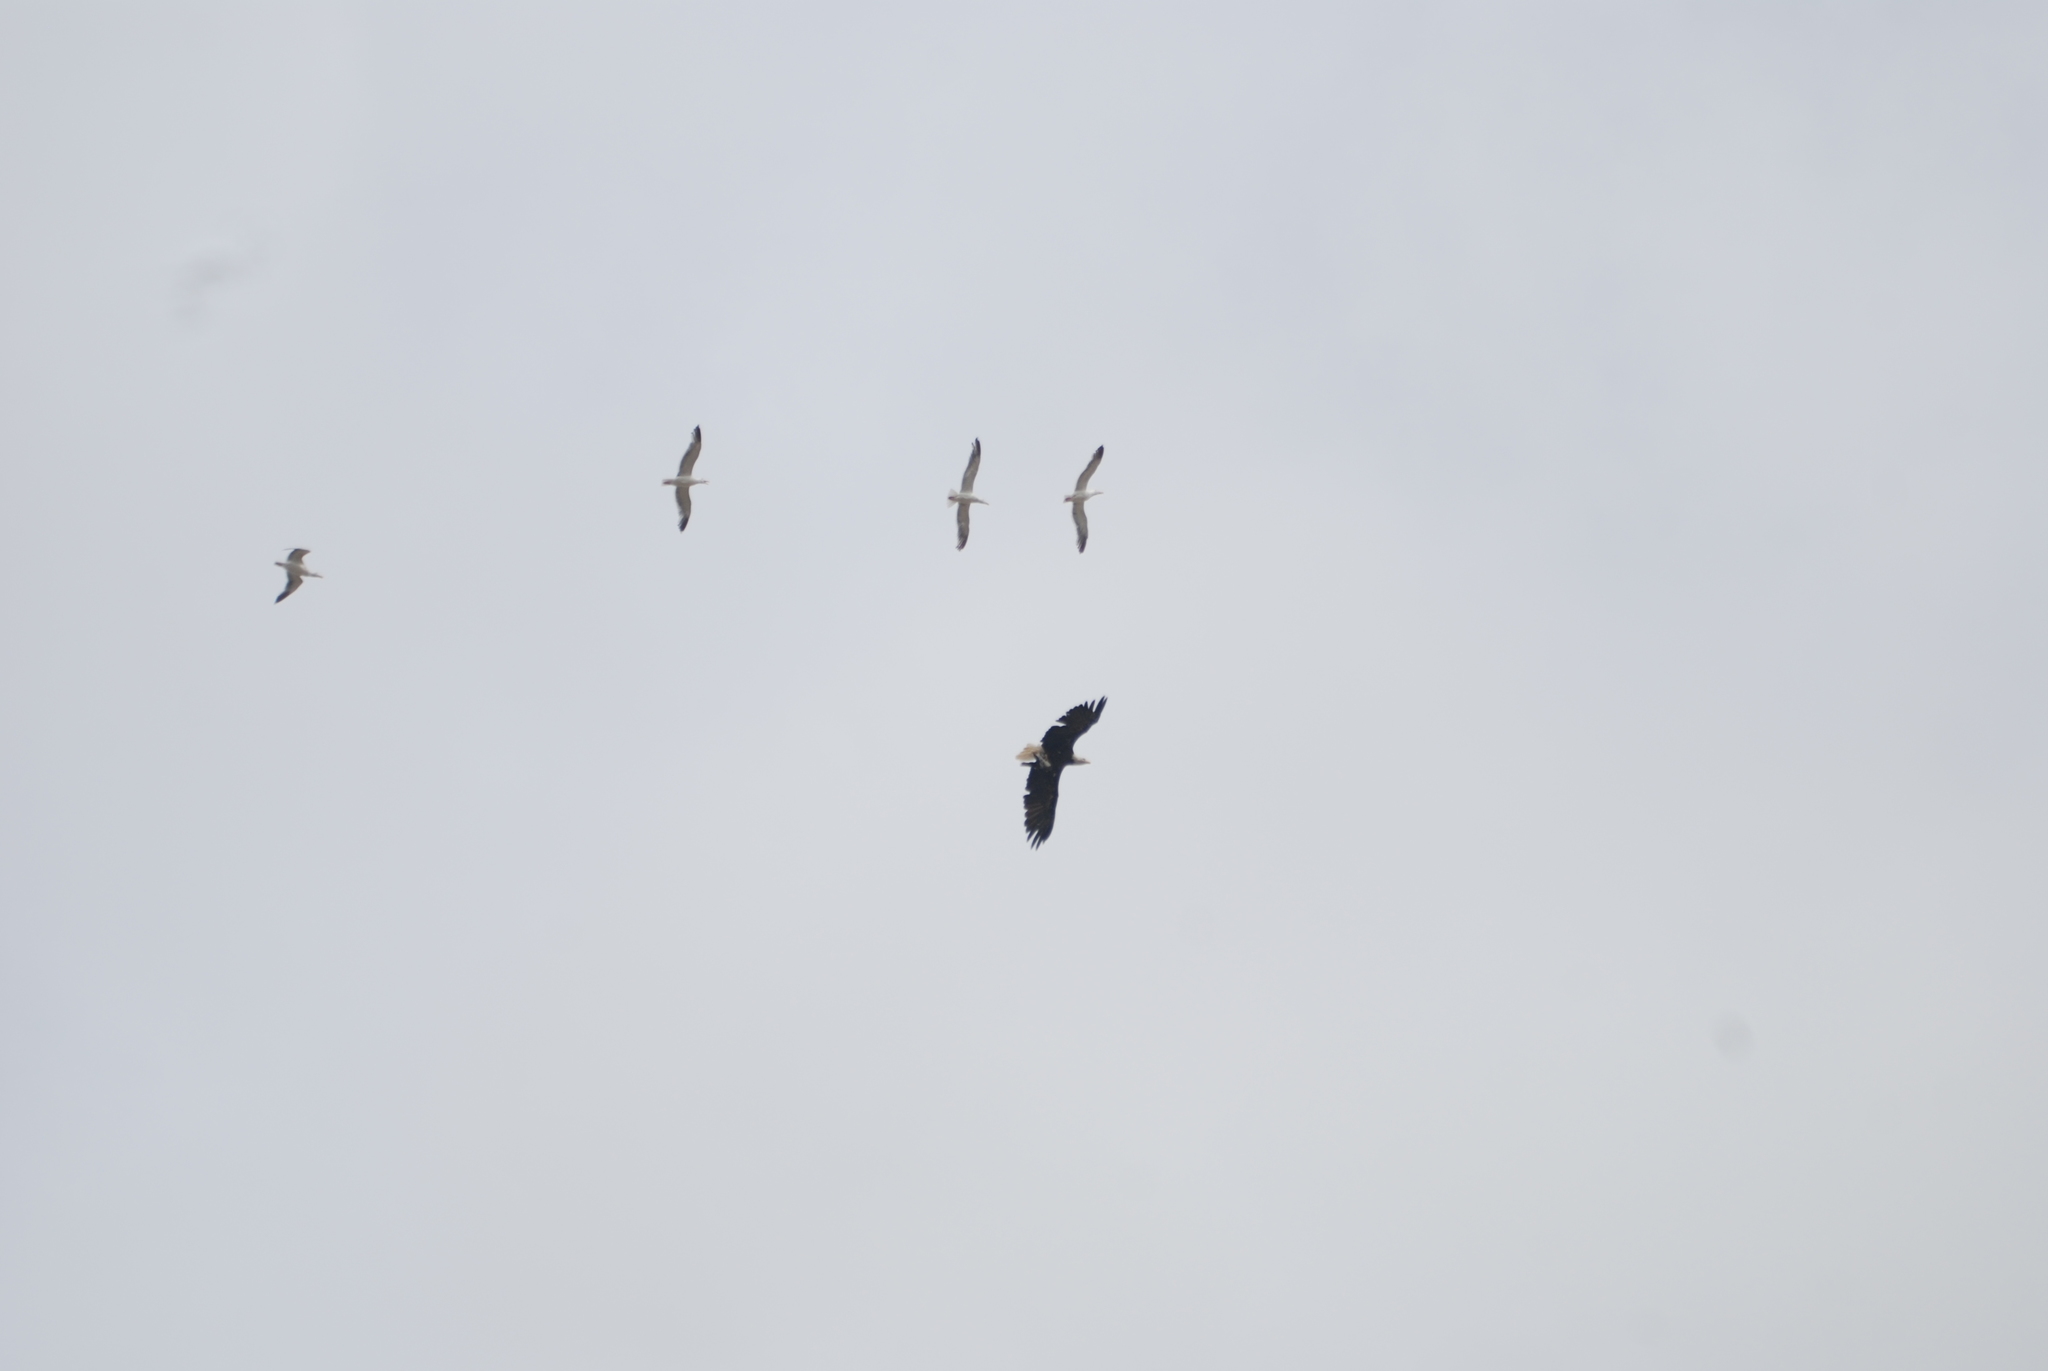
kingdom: Animalia
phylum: Chordata
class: Aves
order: Accipitriformes
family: Accipitridae
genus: Haliaeetus
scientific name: Haliaeetus leucocephalus
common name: Bald eagle
